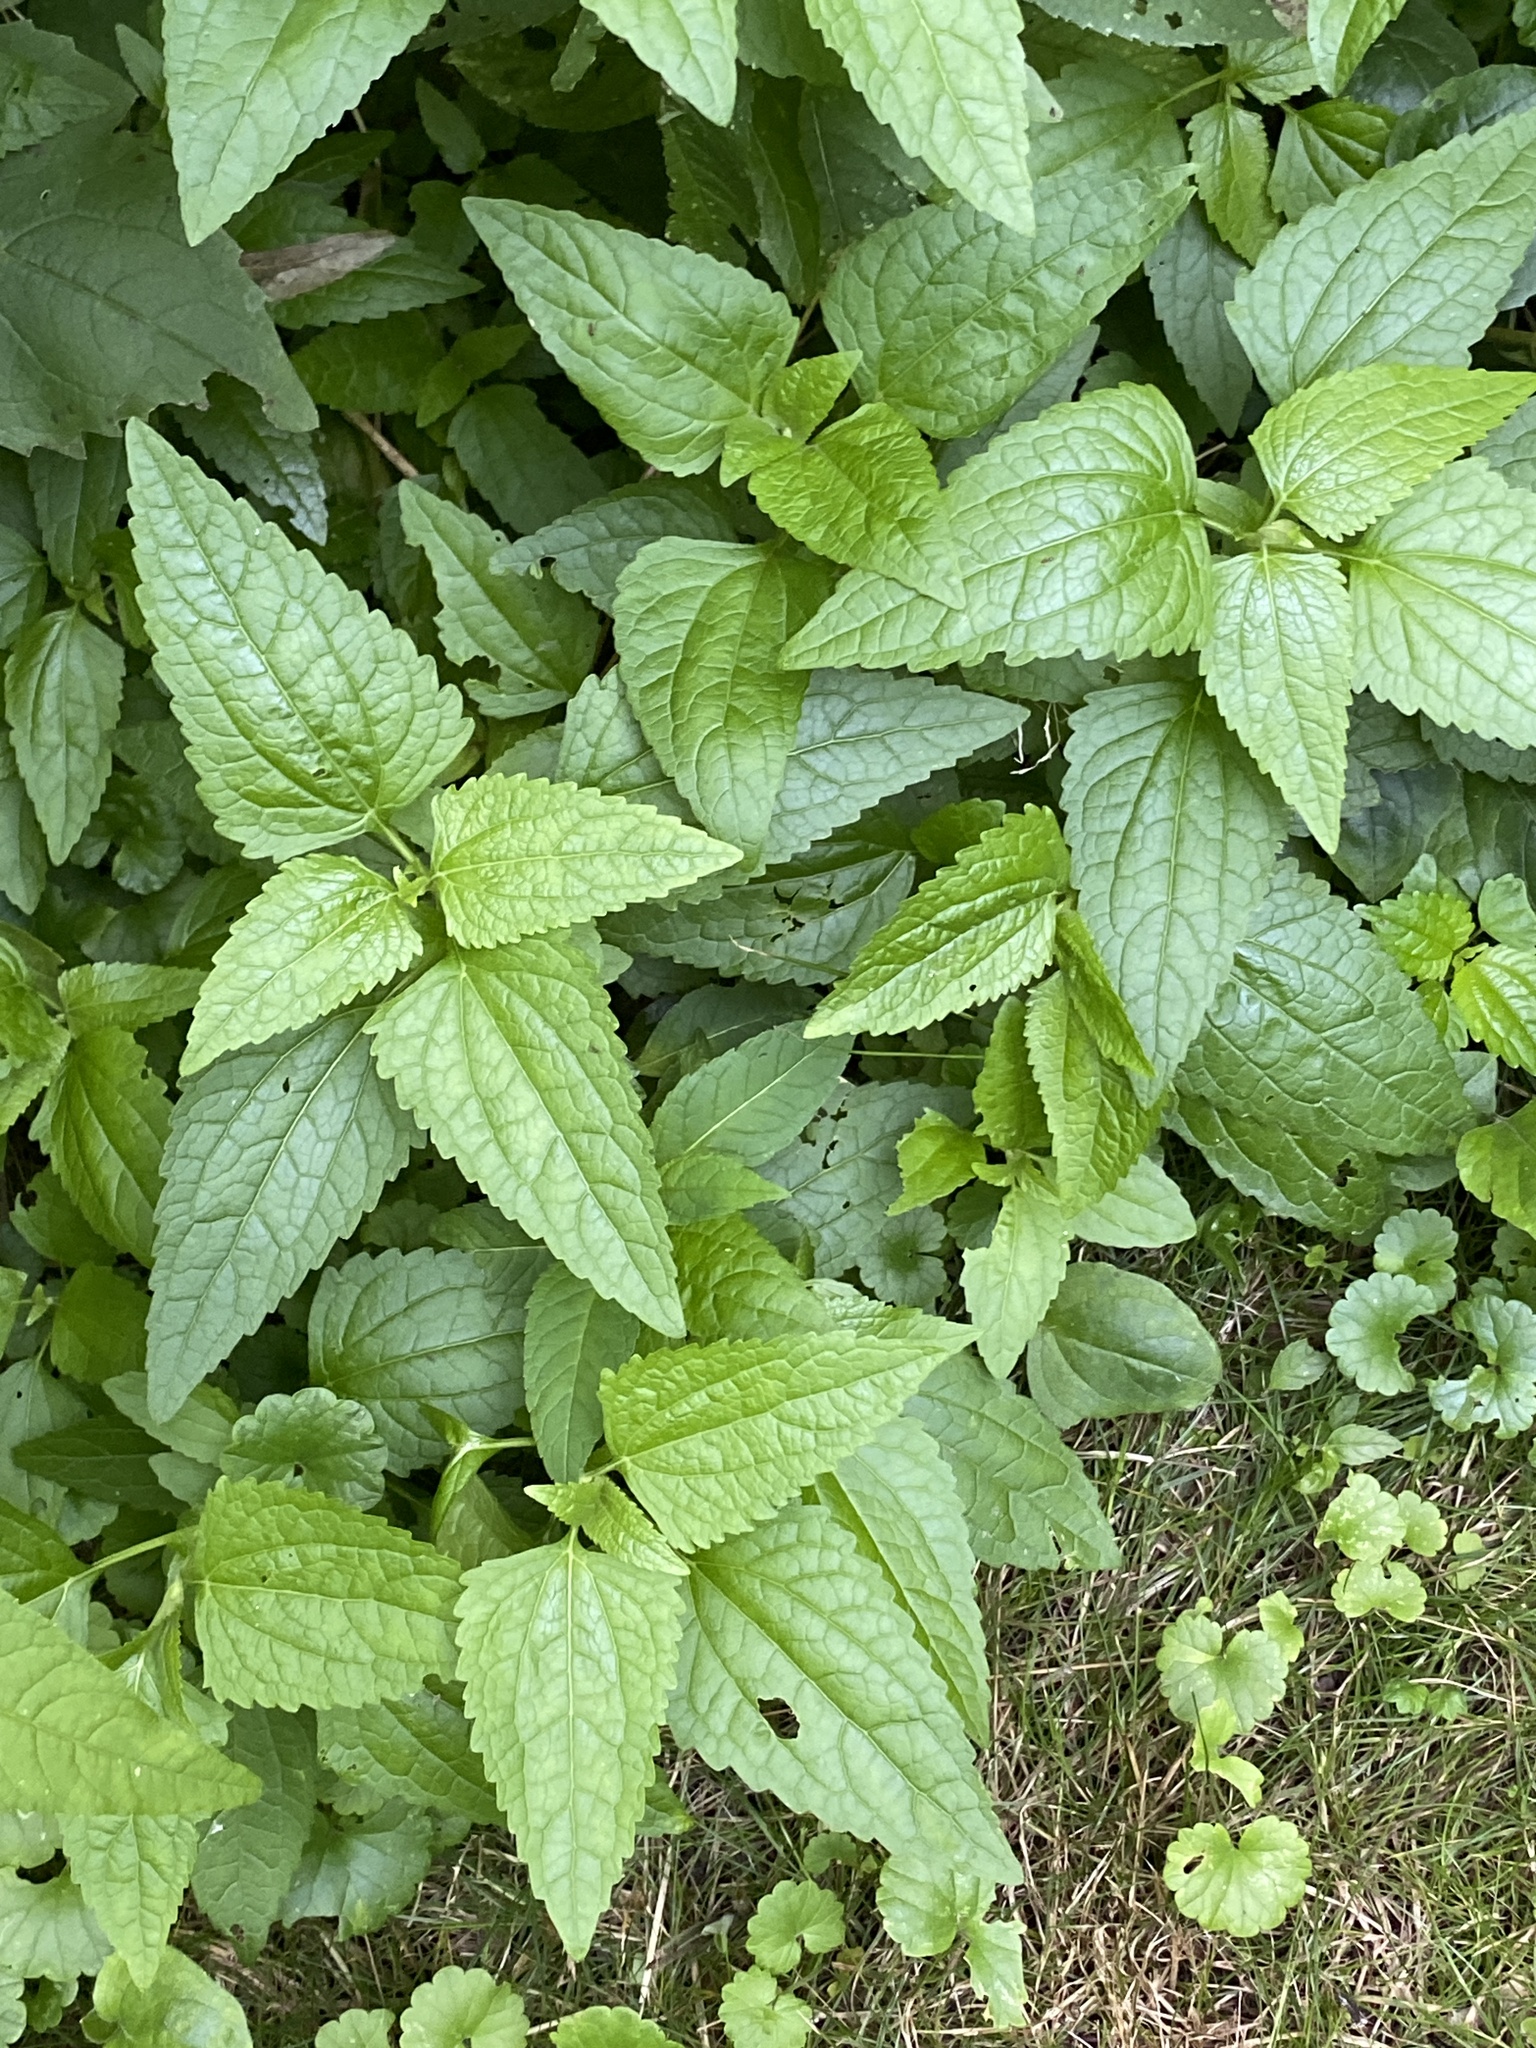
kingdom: Plantae
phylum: Tracheophyta
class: Magnoliopsida
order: Asterales
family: Asteraceae
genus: Conoclinium
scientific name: Conoclinium coelestinum
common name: Blue mistflower
